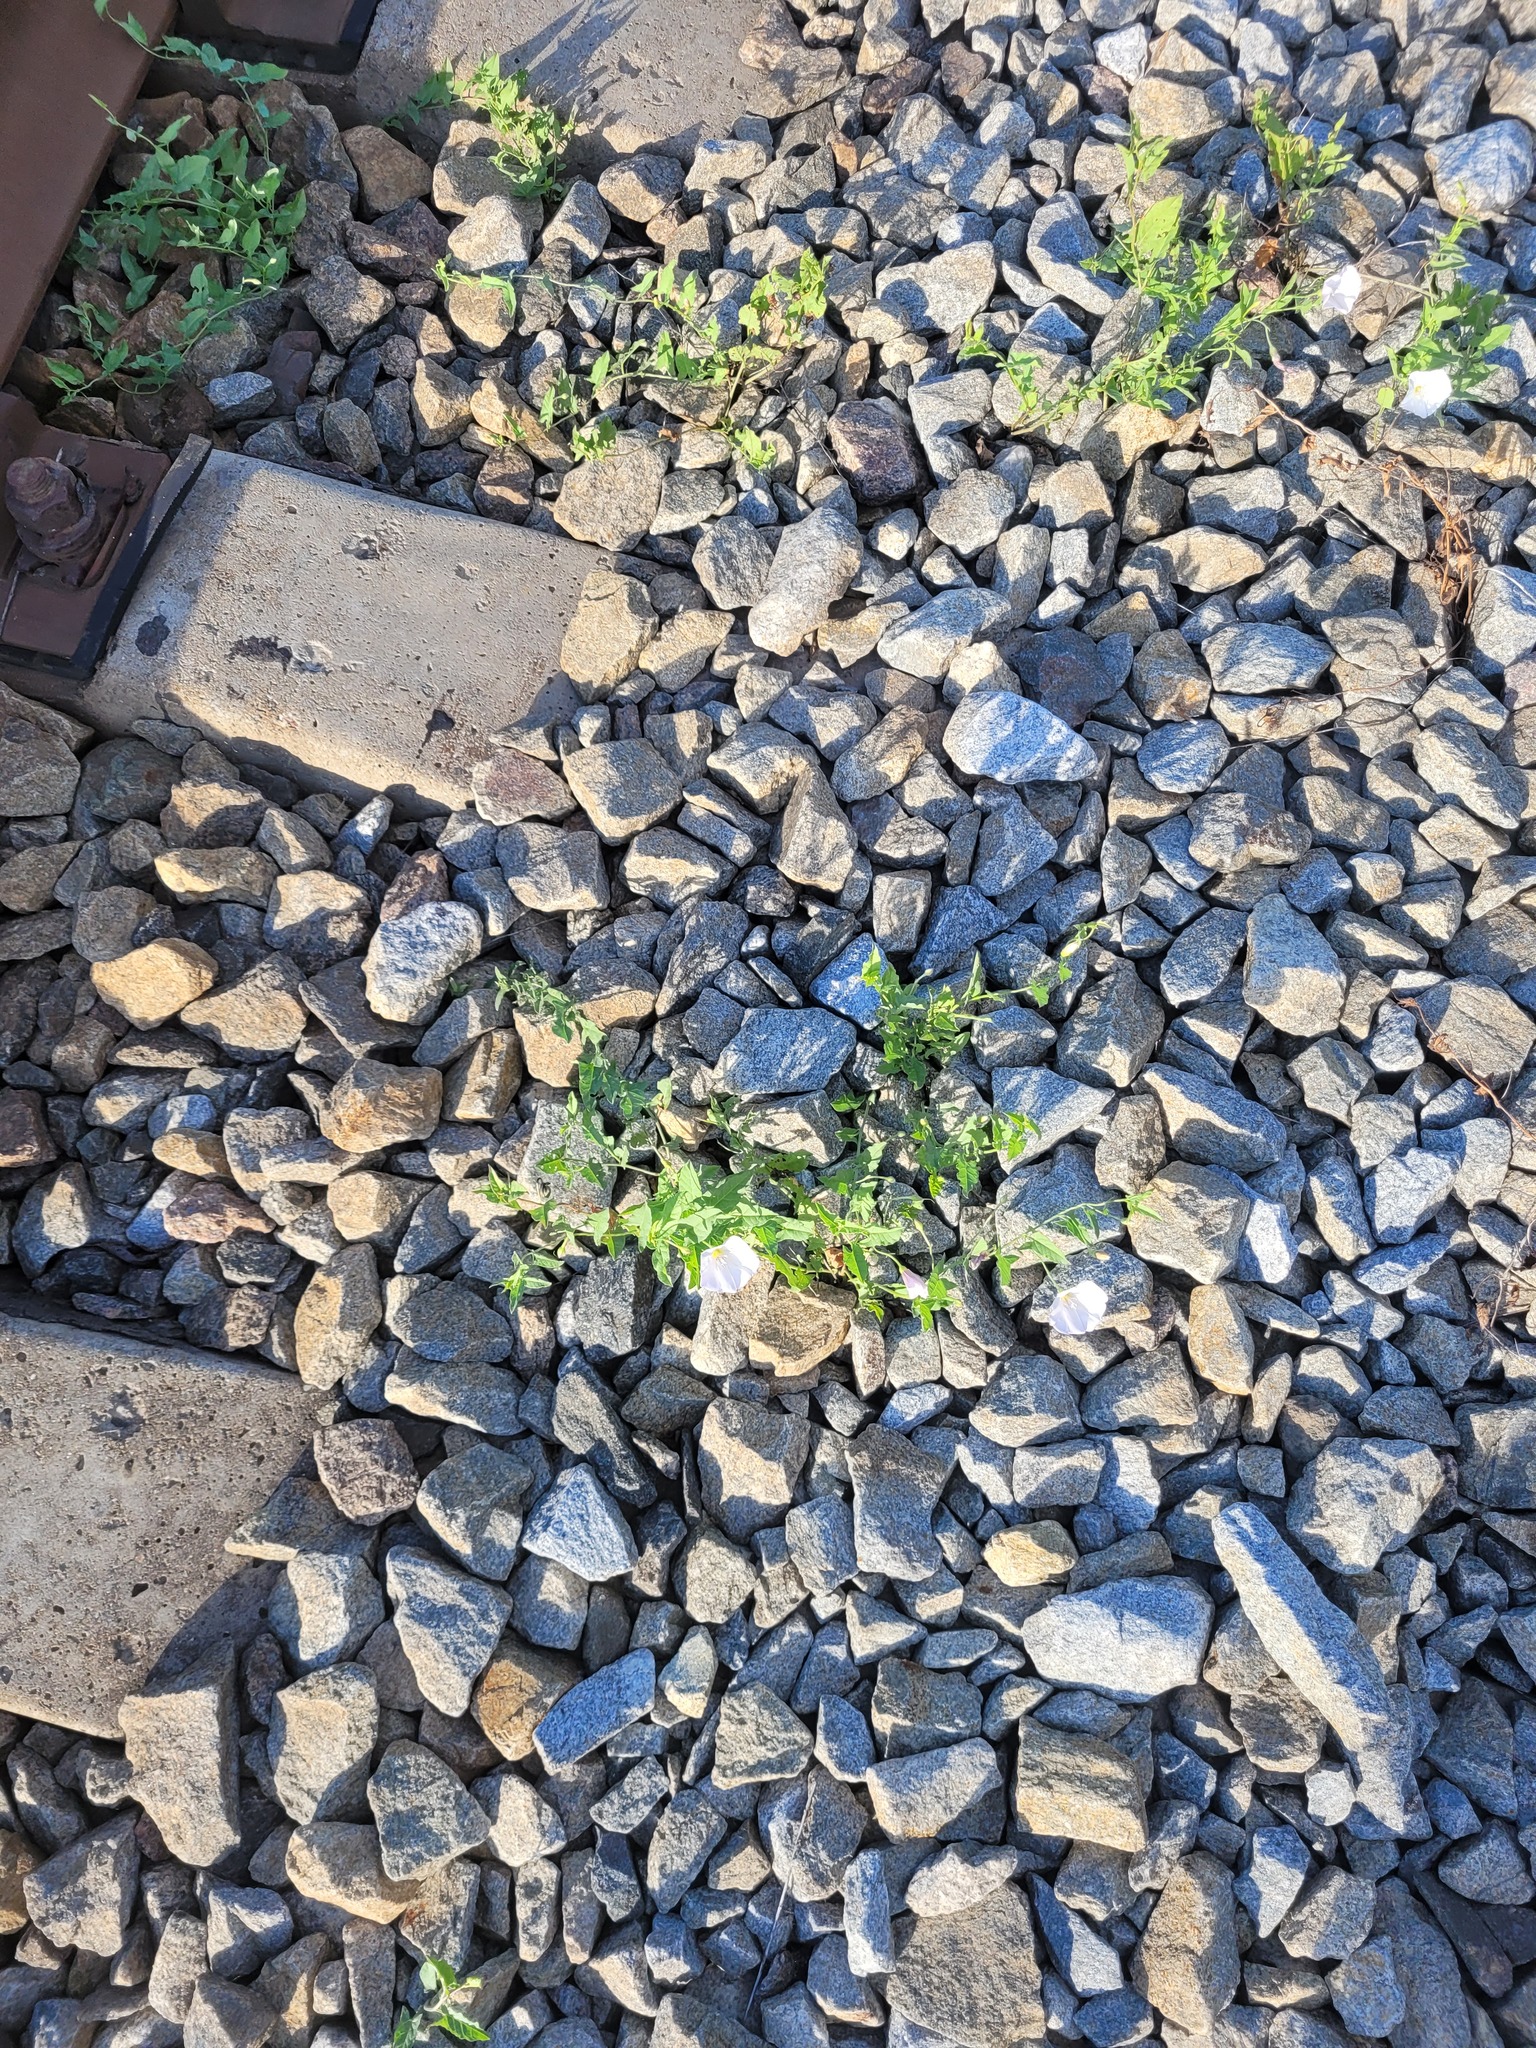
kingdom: Plantae
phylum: Tracheophyta
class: Magnoliopsida
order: Solanales
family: Convolvulaceae
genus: Convolvulus
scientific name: Convolvulus arvensis
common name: Field bindweed
